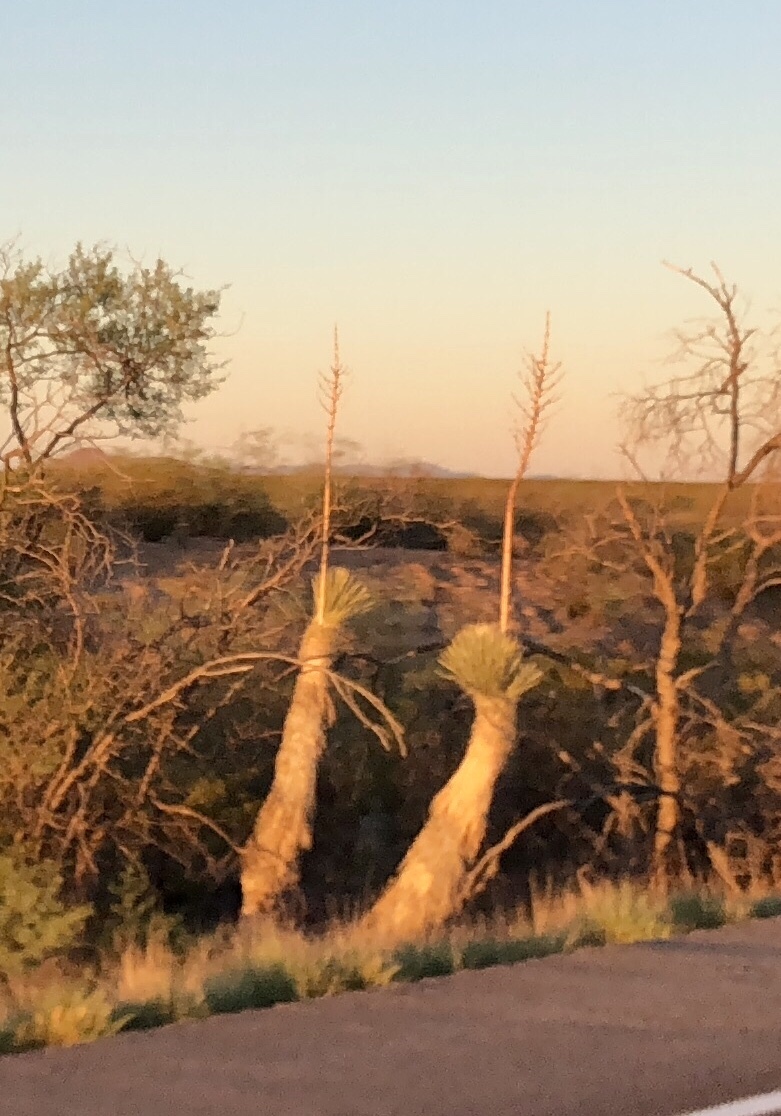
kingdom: Plantae
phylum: Tracheophyta
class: Liliopsida
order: Asparagales
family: Asparagaceae
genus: Yucca
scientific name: Yucca elata
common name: Palmella
